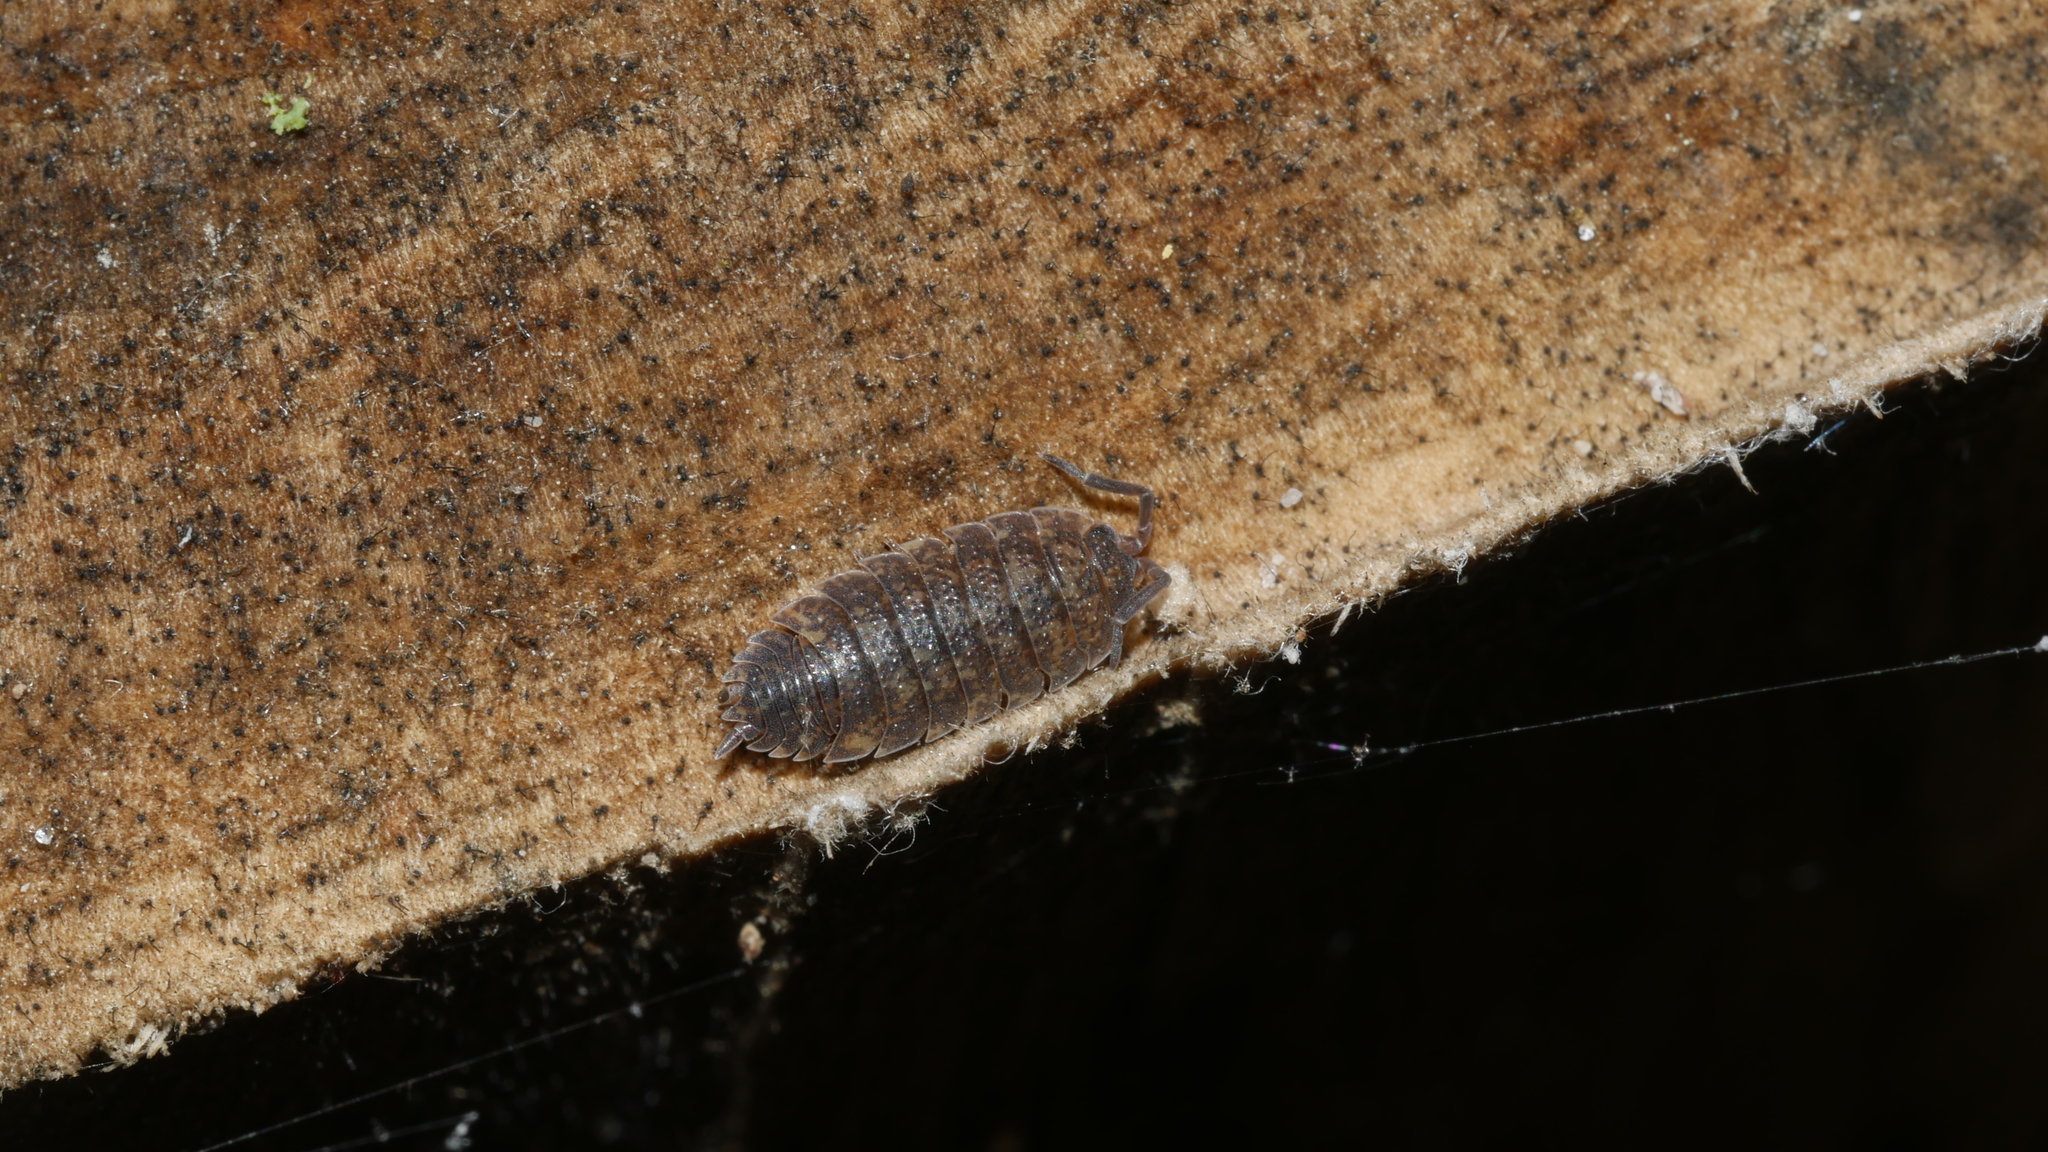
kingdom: Animalia
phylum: Arthropoda
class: Malacostraca
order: Isopoda
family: Porcellionidae
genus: Porcellio
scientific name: Porcellio scaber
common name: Common rough woodlouse
